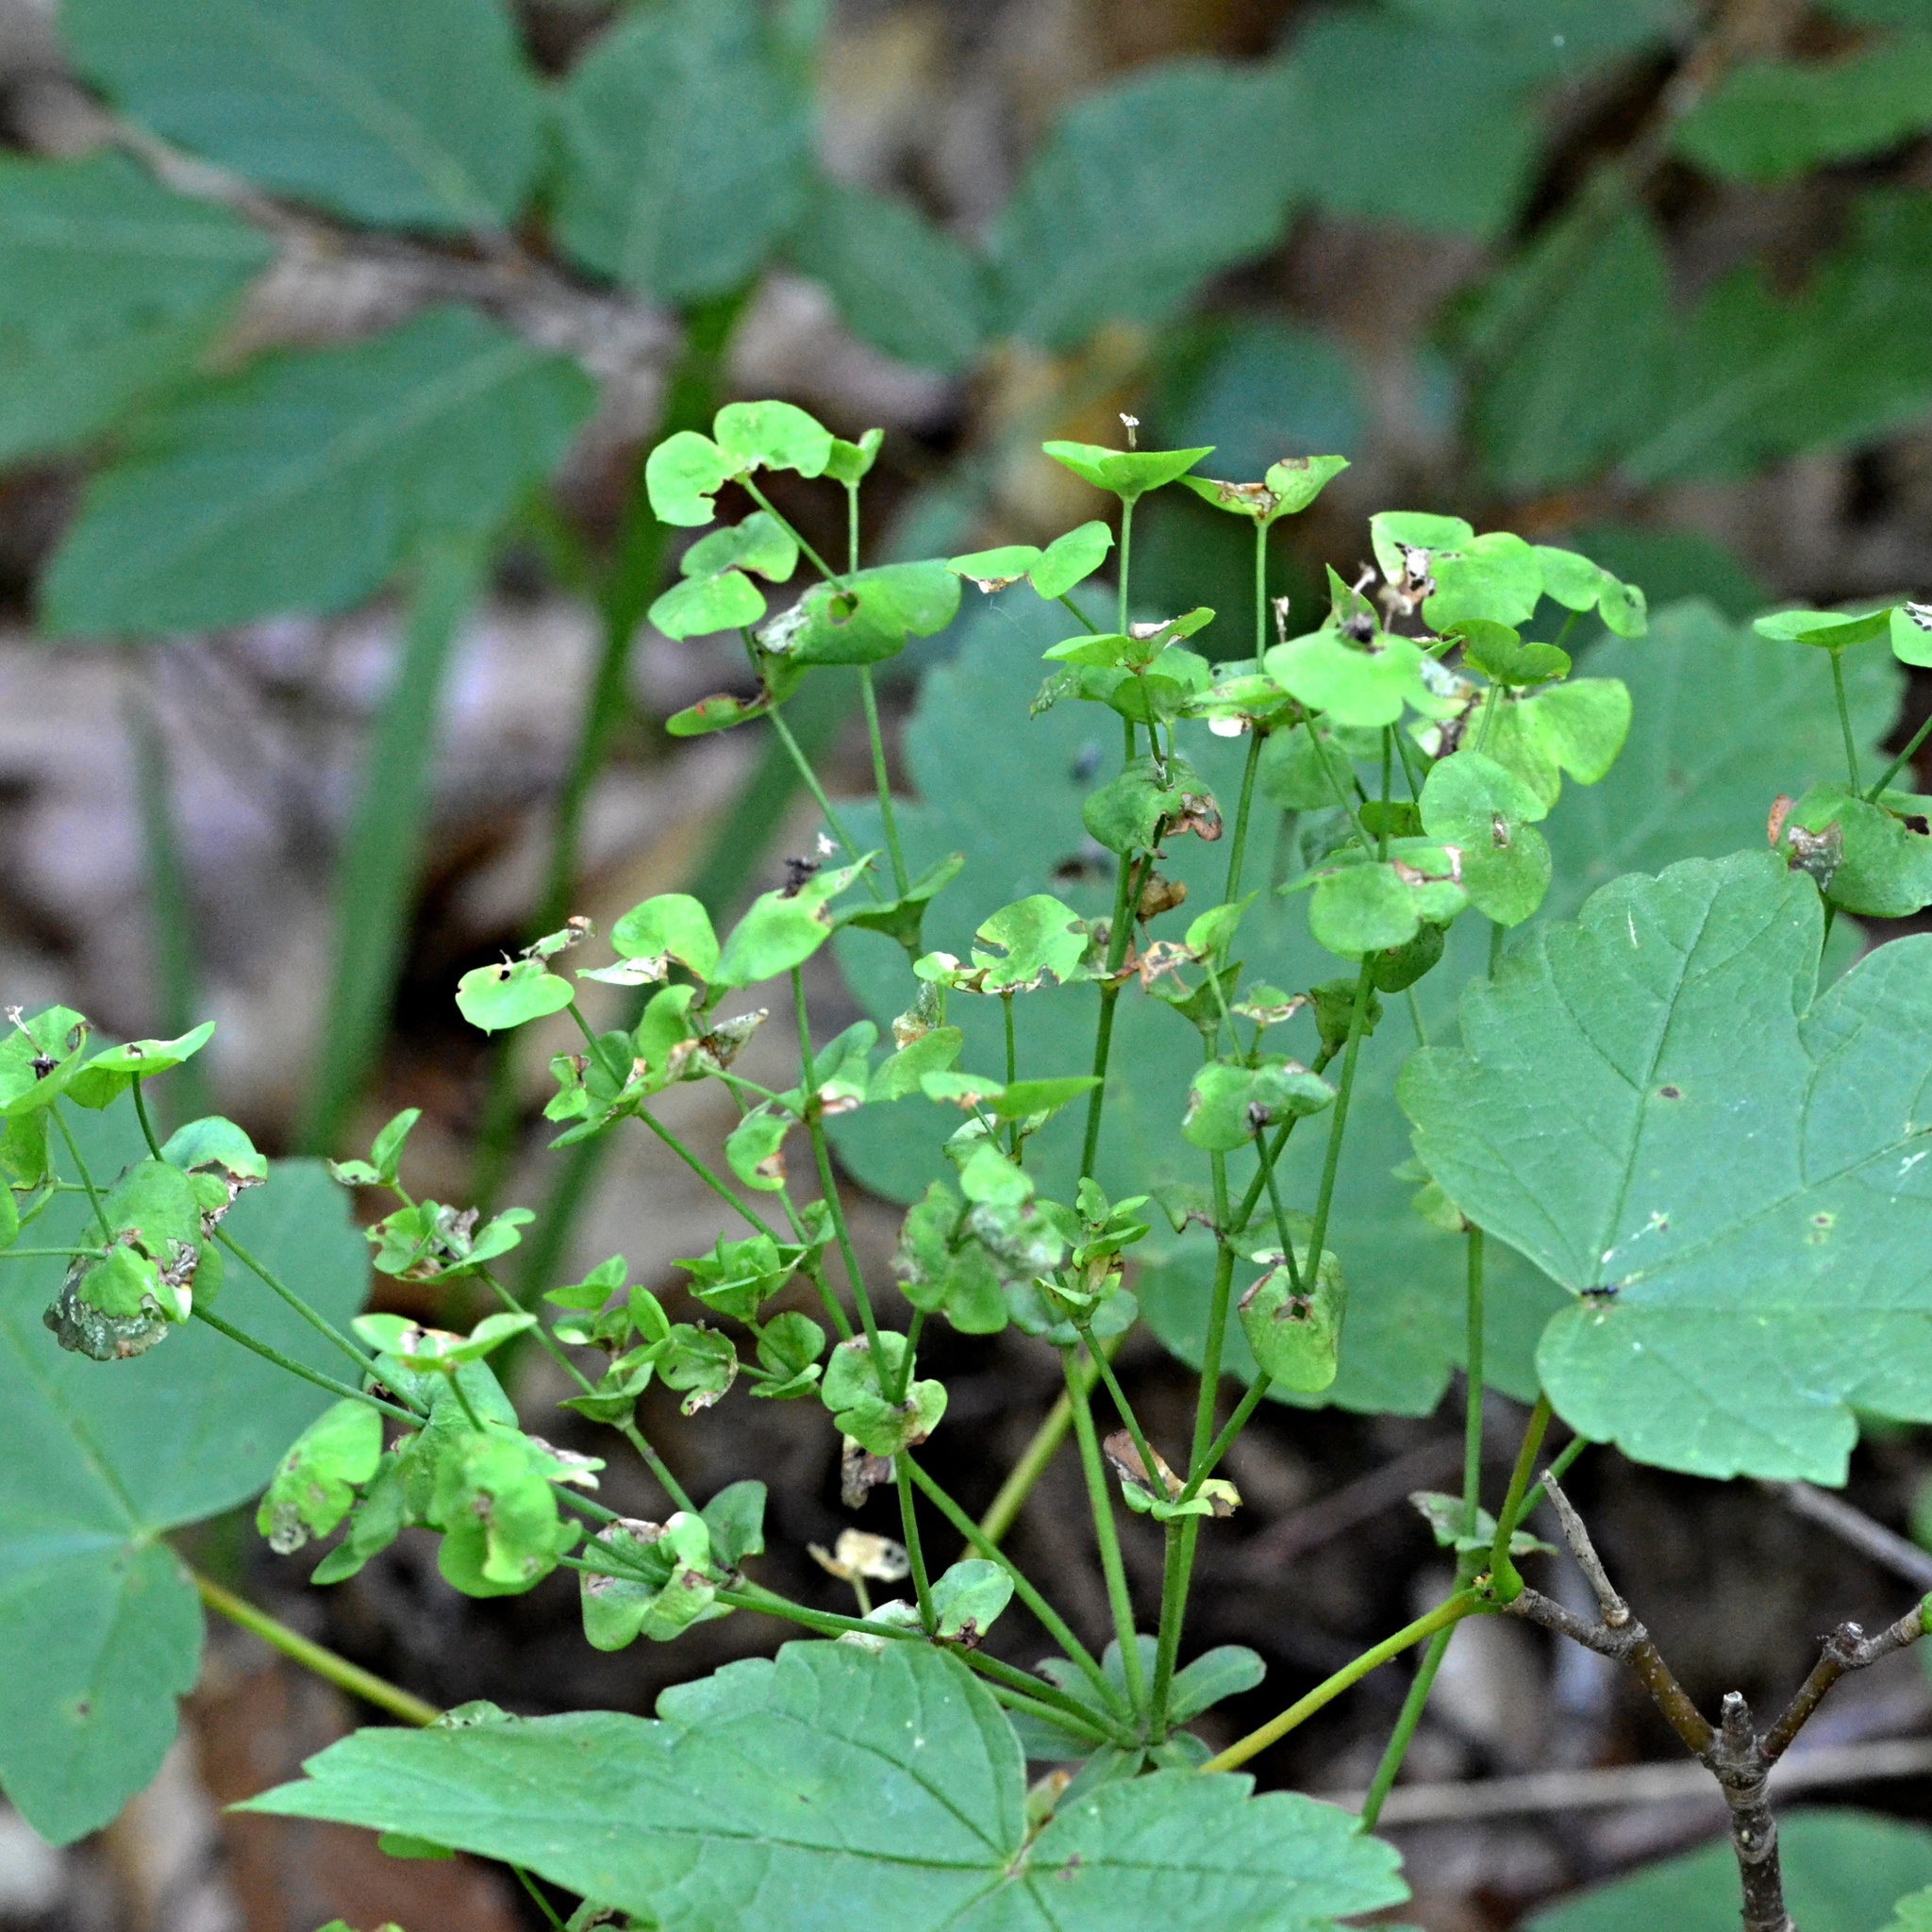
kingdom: Plantae
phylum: Tracheophyta
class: Magnoliopsida
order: Malpighiales
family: Euphorbiaceae
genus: Euphorbia
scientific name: Euphorbia amygdaloides
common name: Wood spurge
